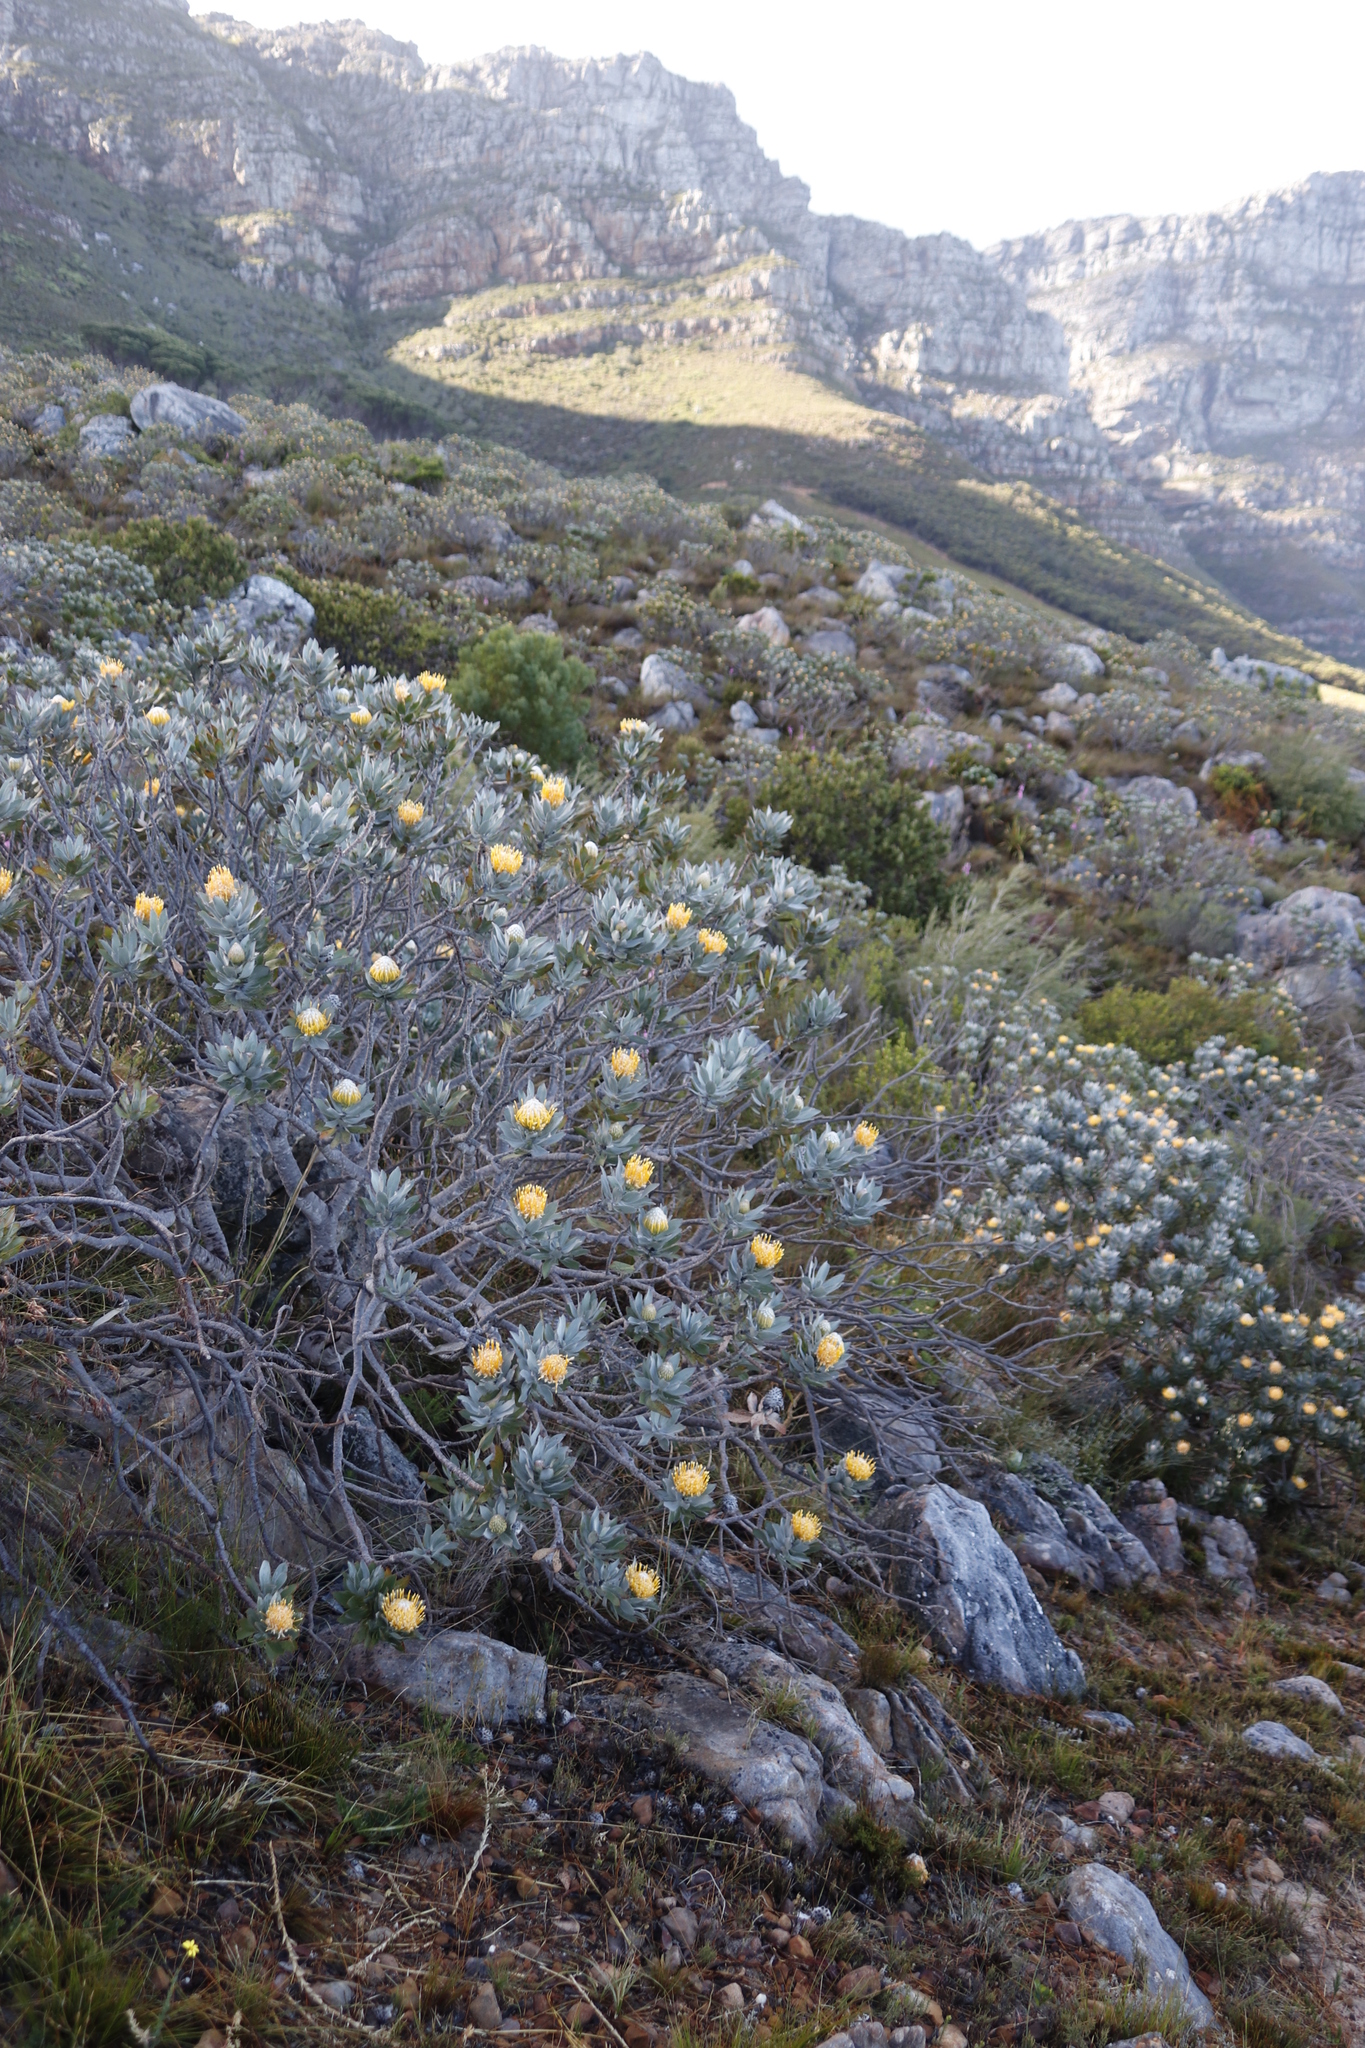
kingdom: Plantae
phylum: Tracheophyta
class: Magnoliopsida
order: Proteales
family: Proteaceae
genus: Leucospermum
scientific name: Leucospermum conocarpodendron
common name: Tree pincushion
